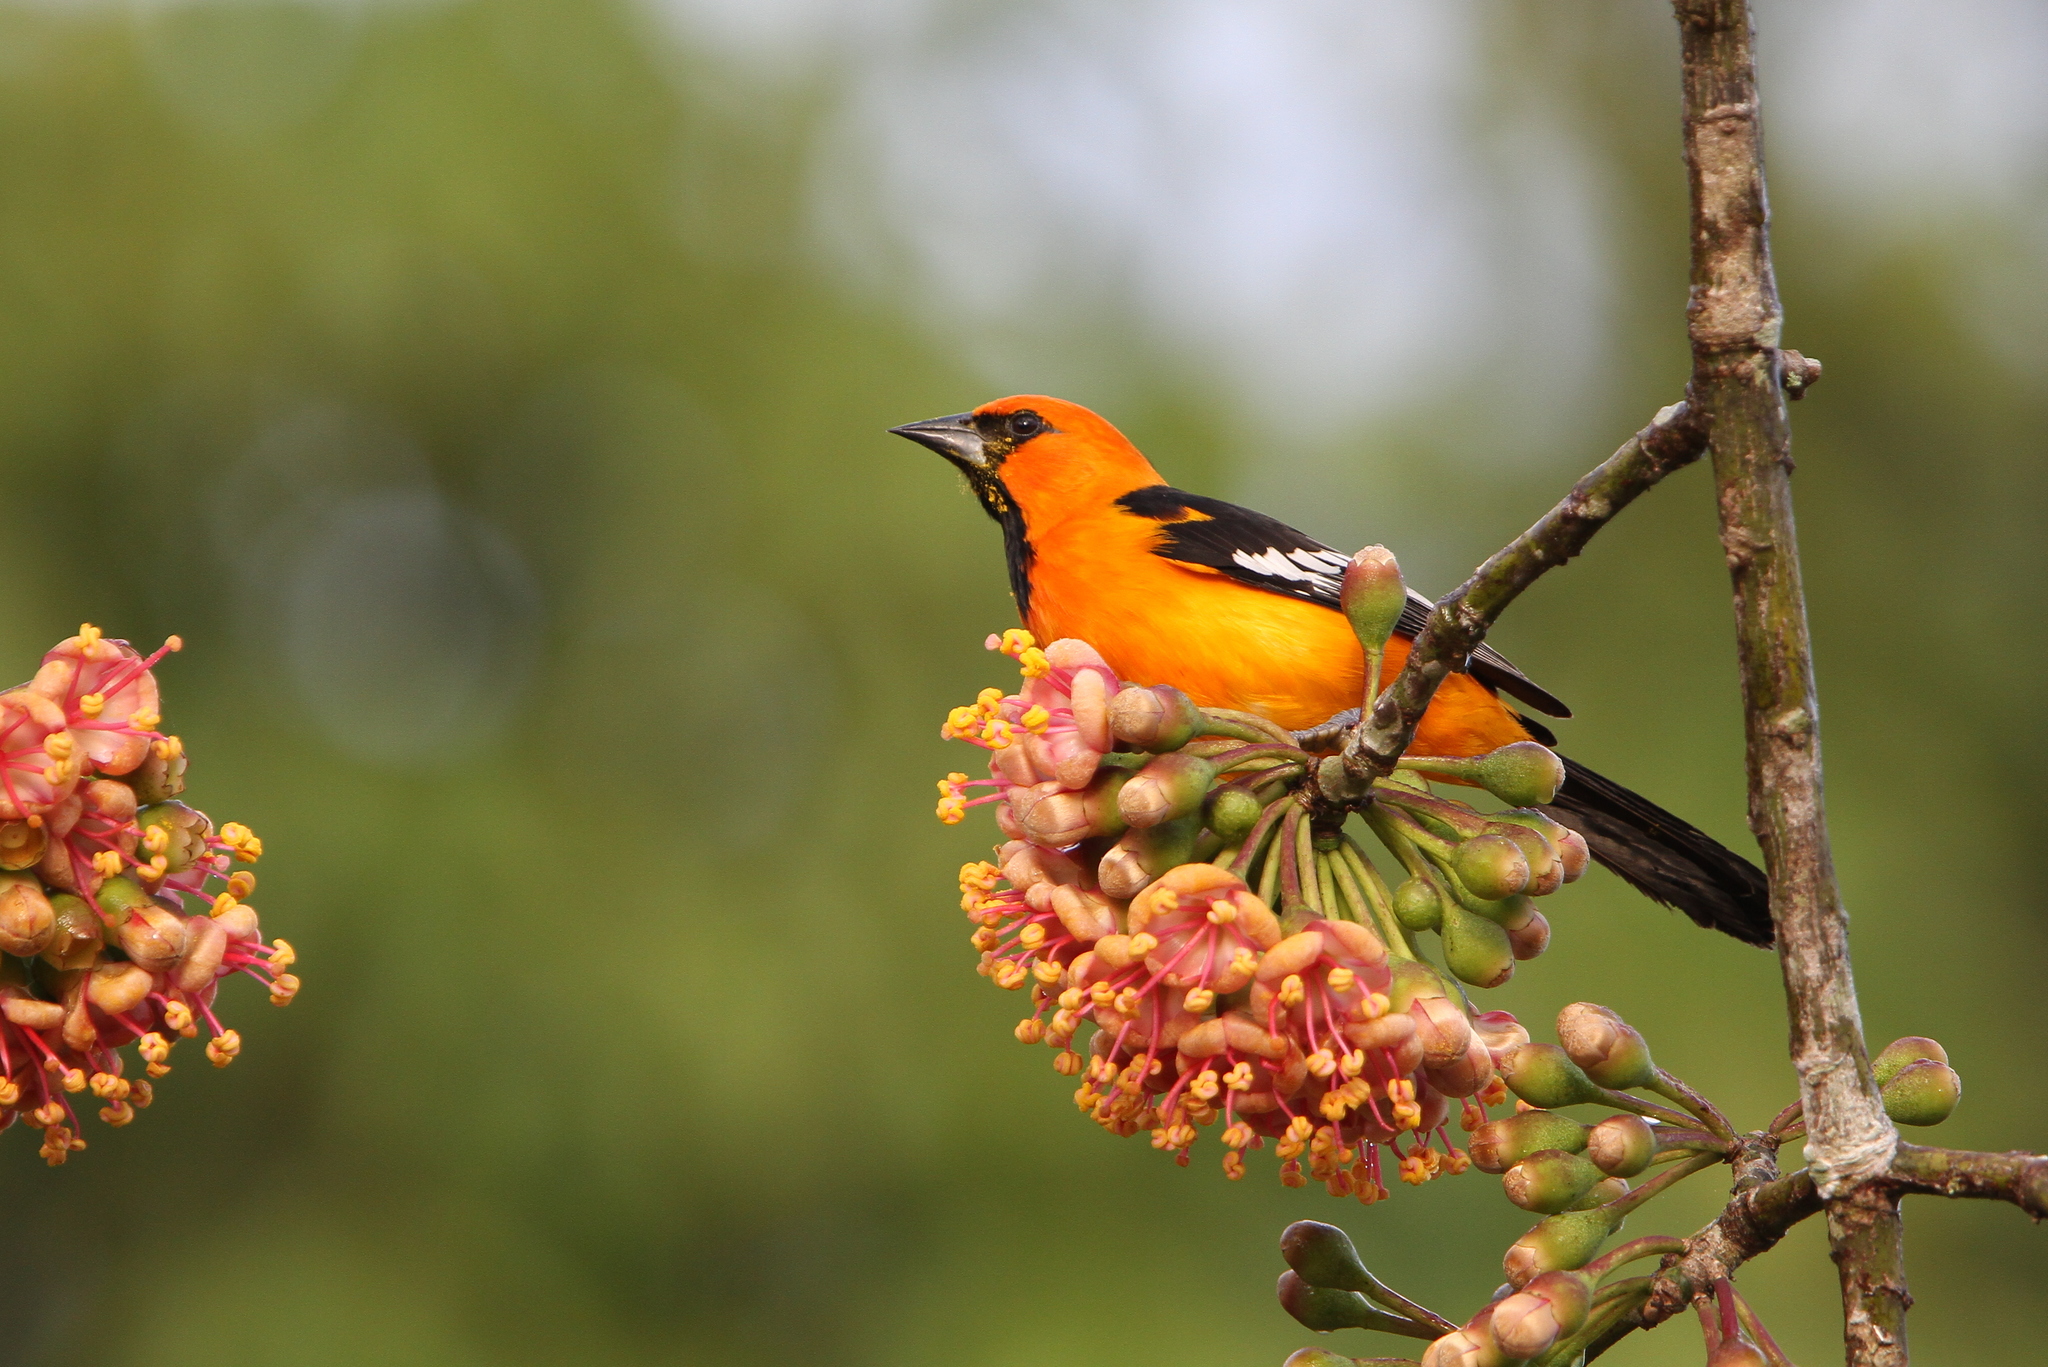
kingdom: Animalia
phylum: Chordata
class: Aves
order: Passeriformes
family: Icteridae
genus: Icterus
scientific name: Icterus gularis
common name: Altamira oriole
